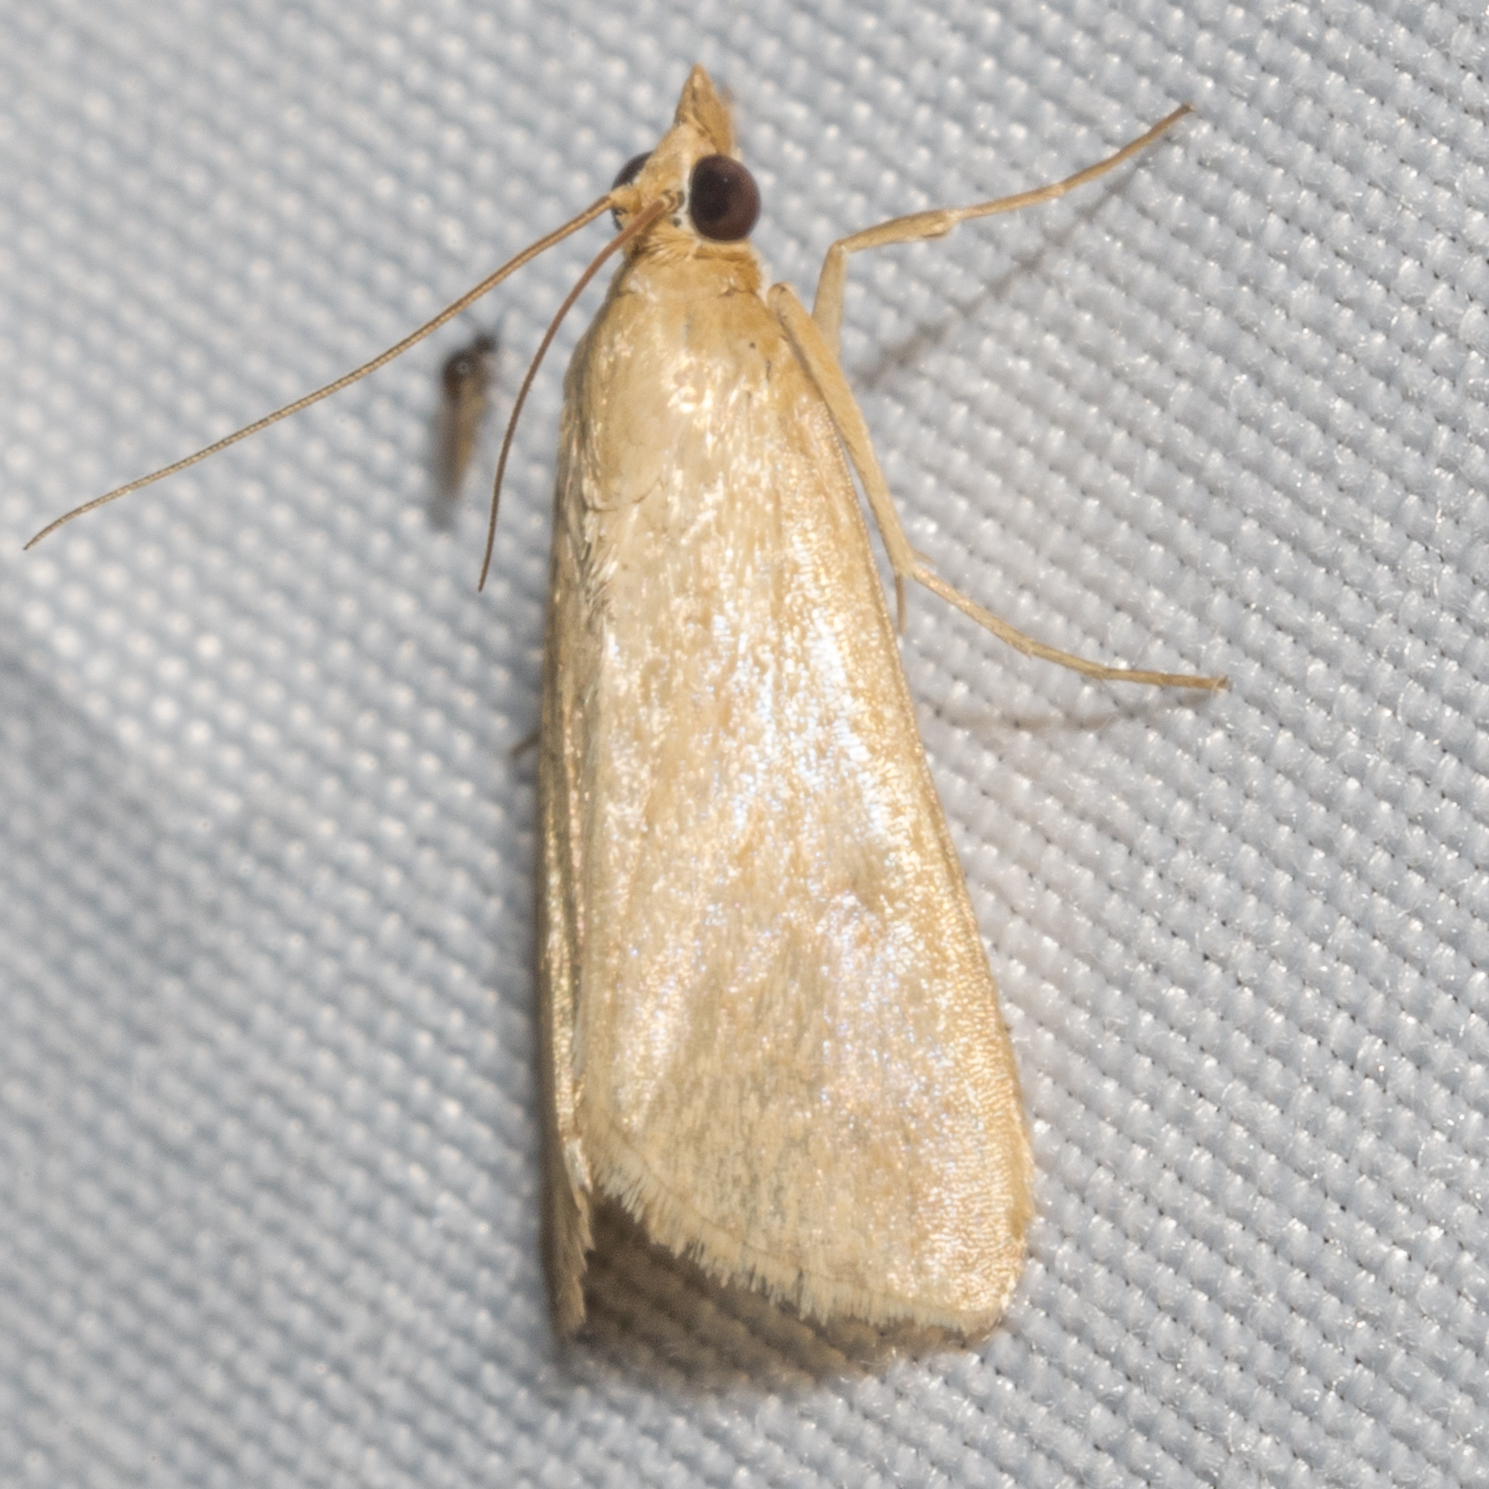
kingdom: Animalia
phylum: Arthropoda
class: Insecta
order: Lepidoptera
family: Crambidae
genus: Achyra
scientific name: Achyra rantalis
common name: Garden webworm
